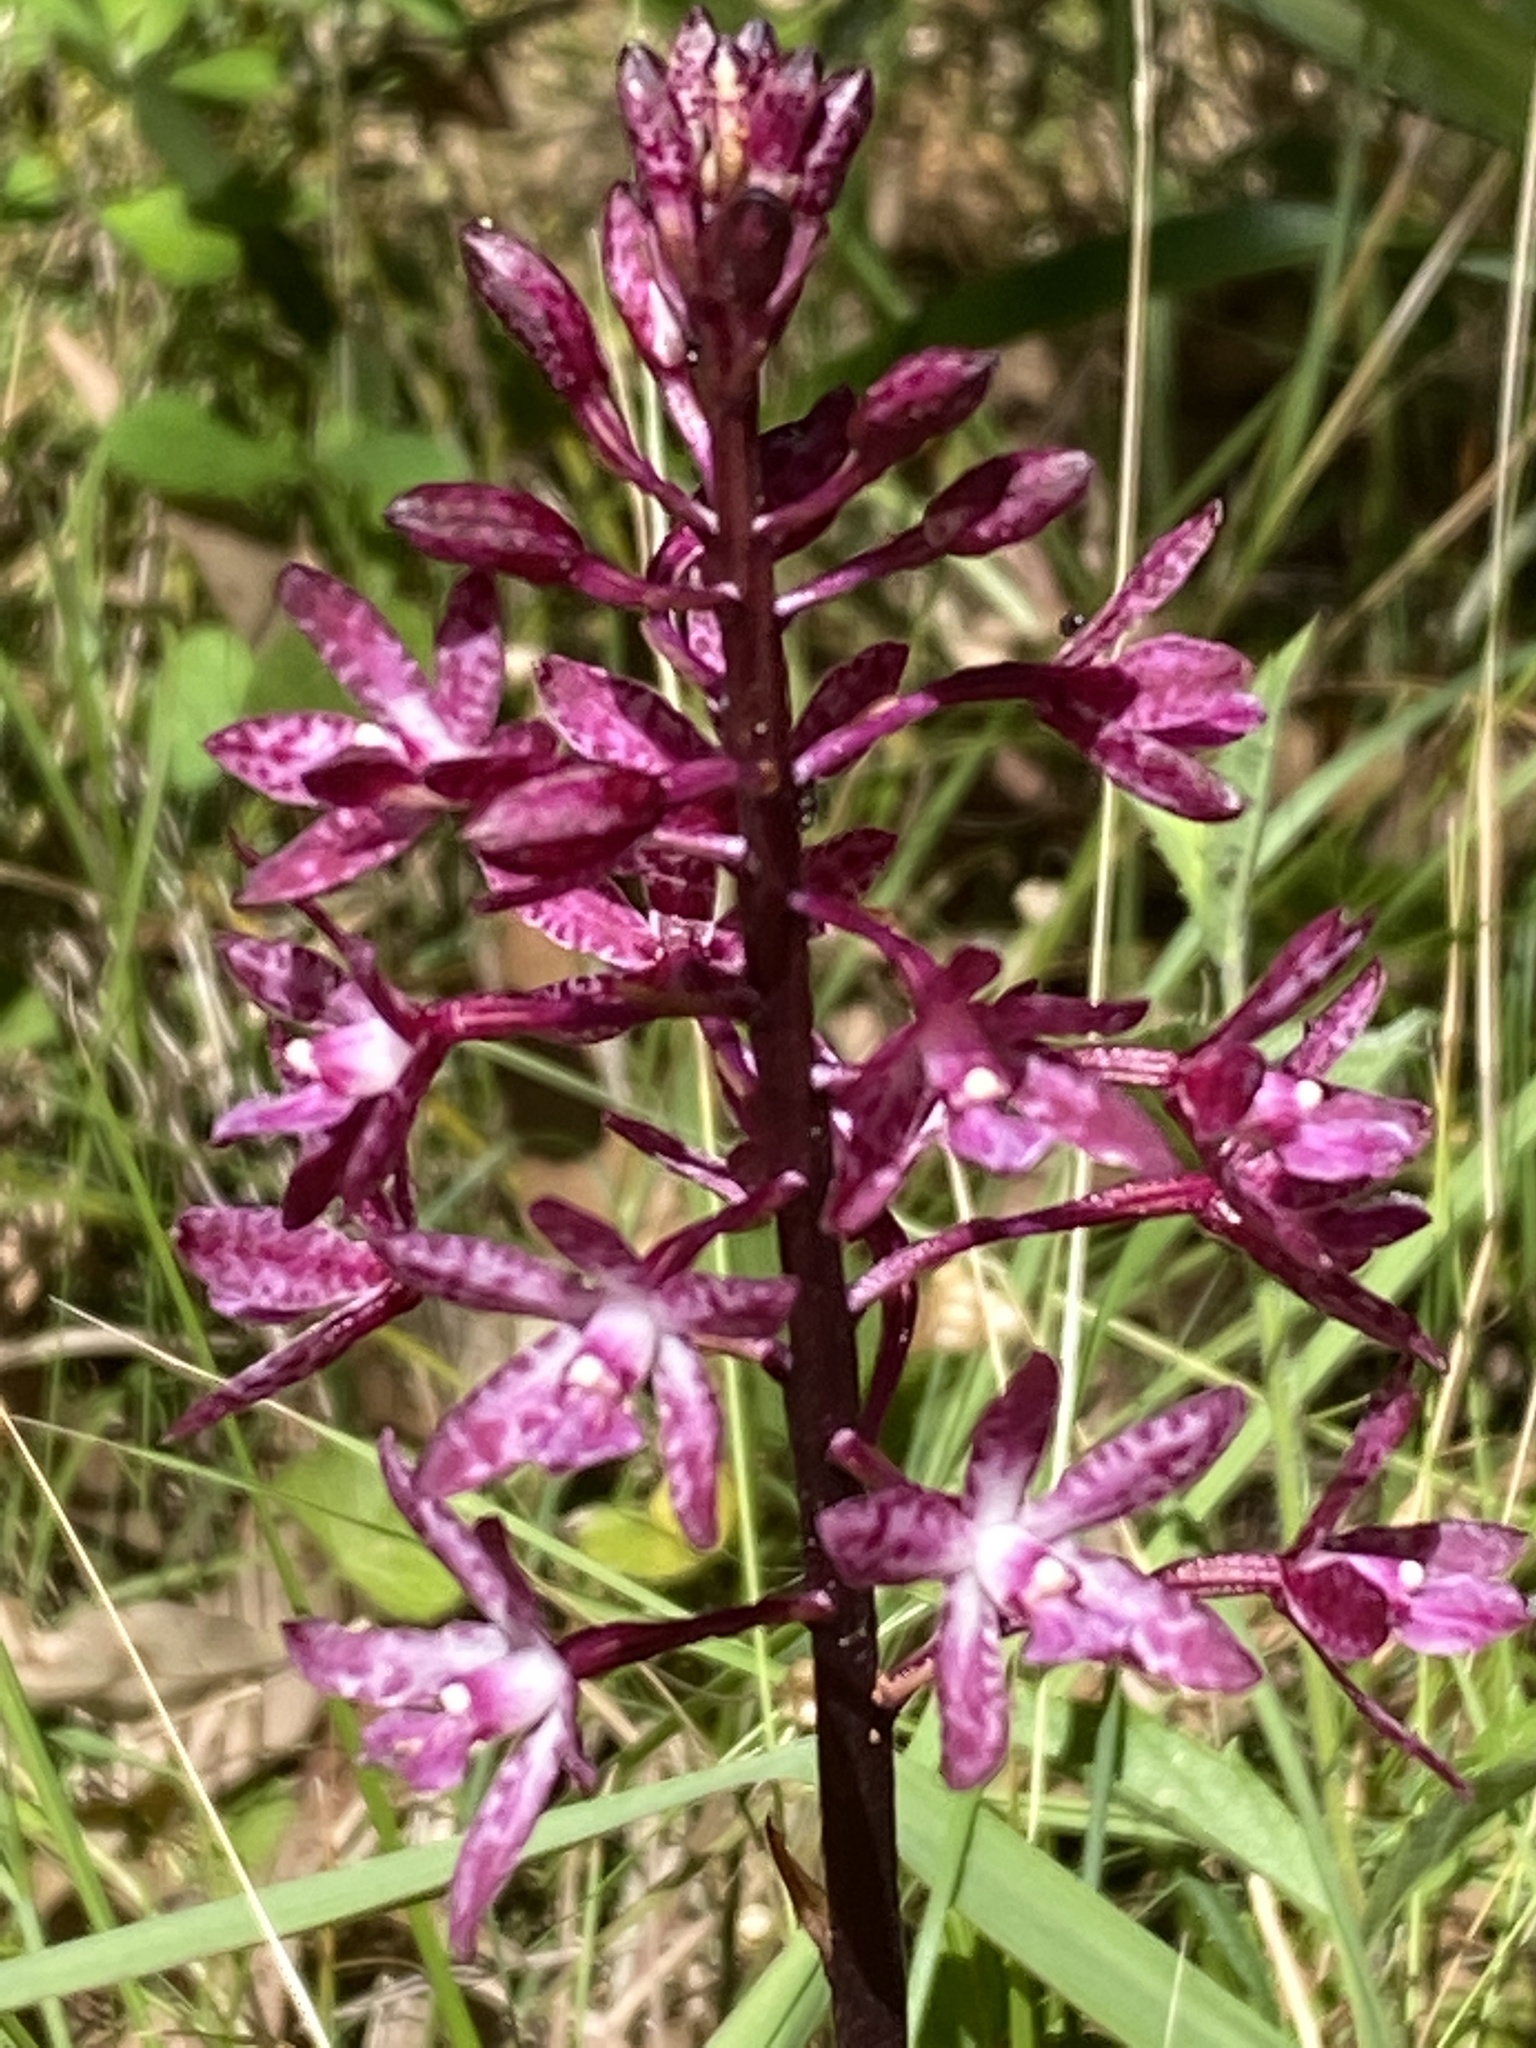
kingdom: Plantae
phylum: Tracheophyta
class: Liliopsida
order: Asparagales
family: Orchidaceae
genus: Dipodium
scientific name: Dipodium squamatum
